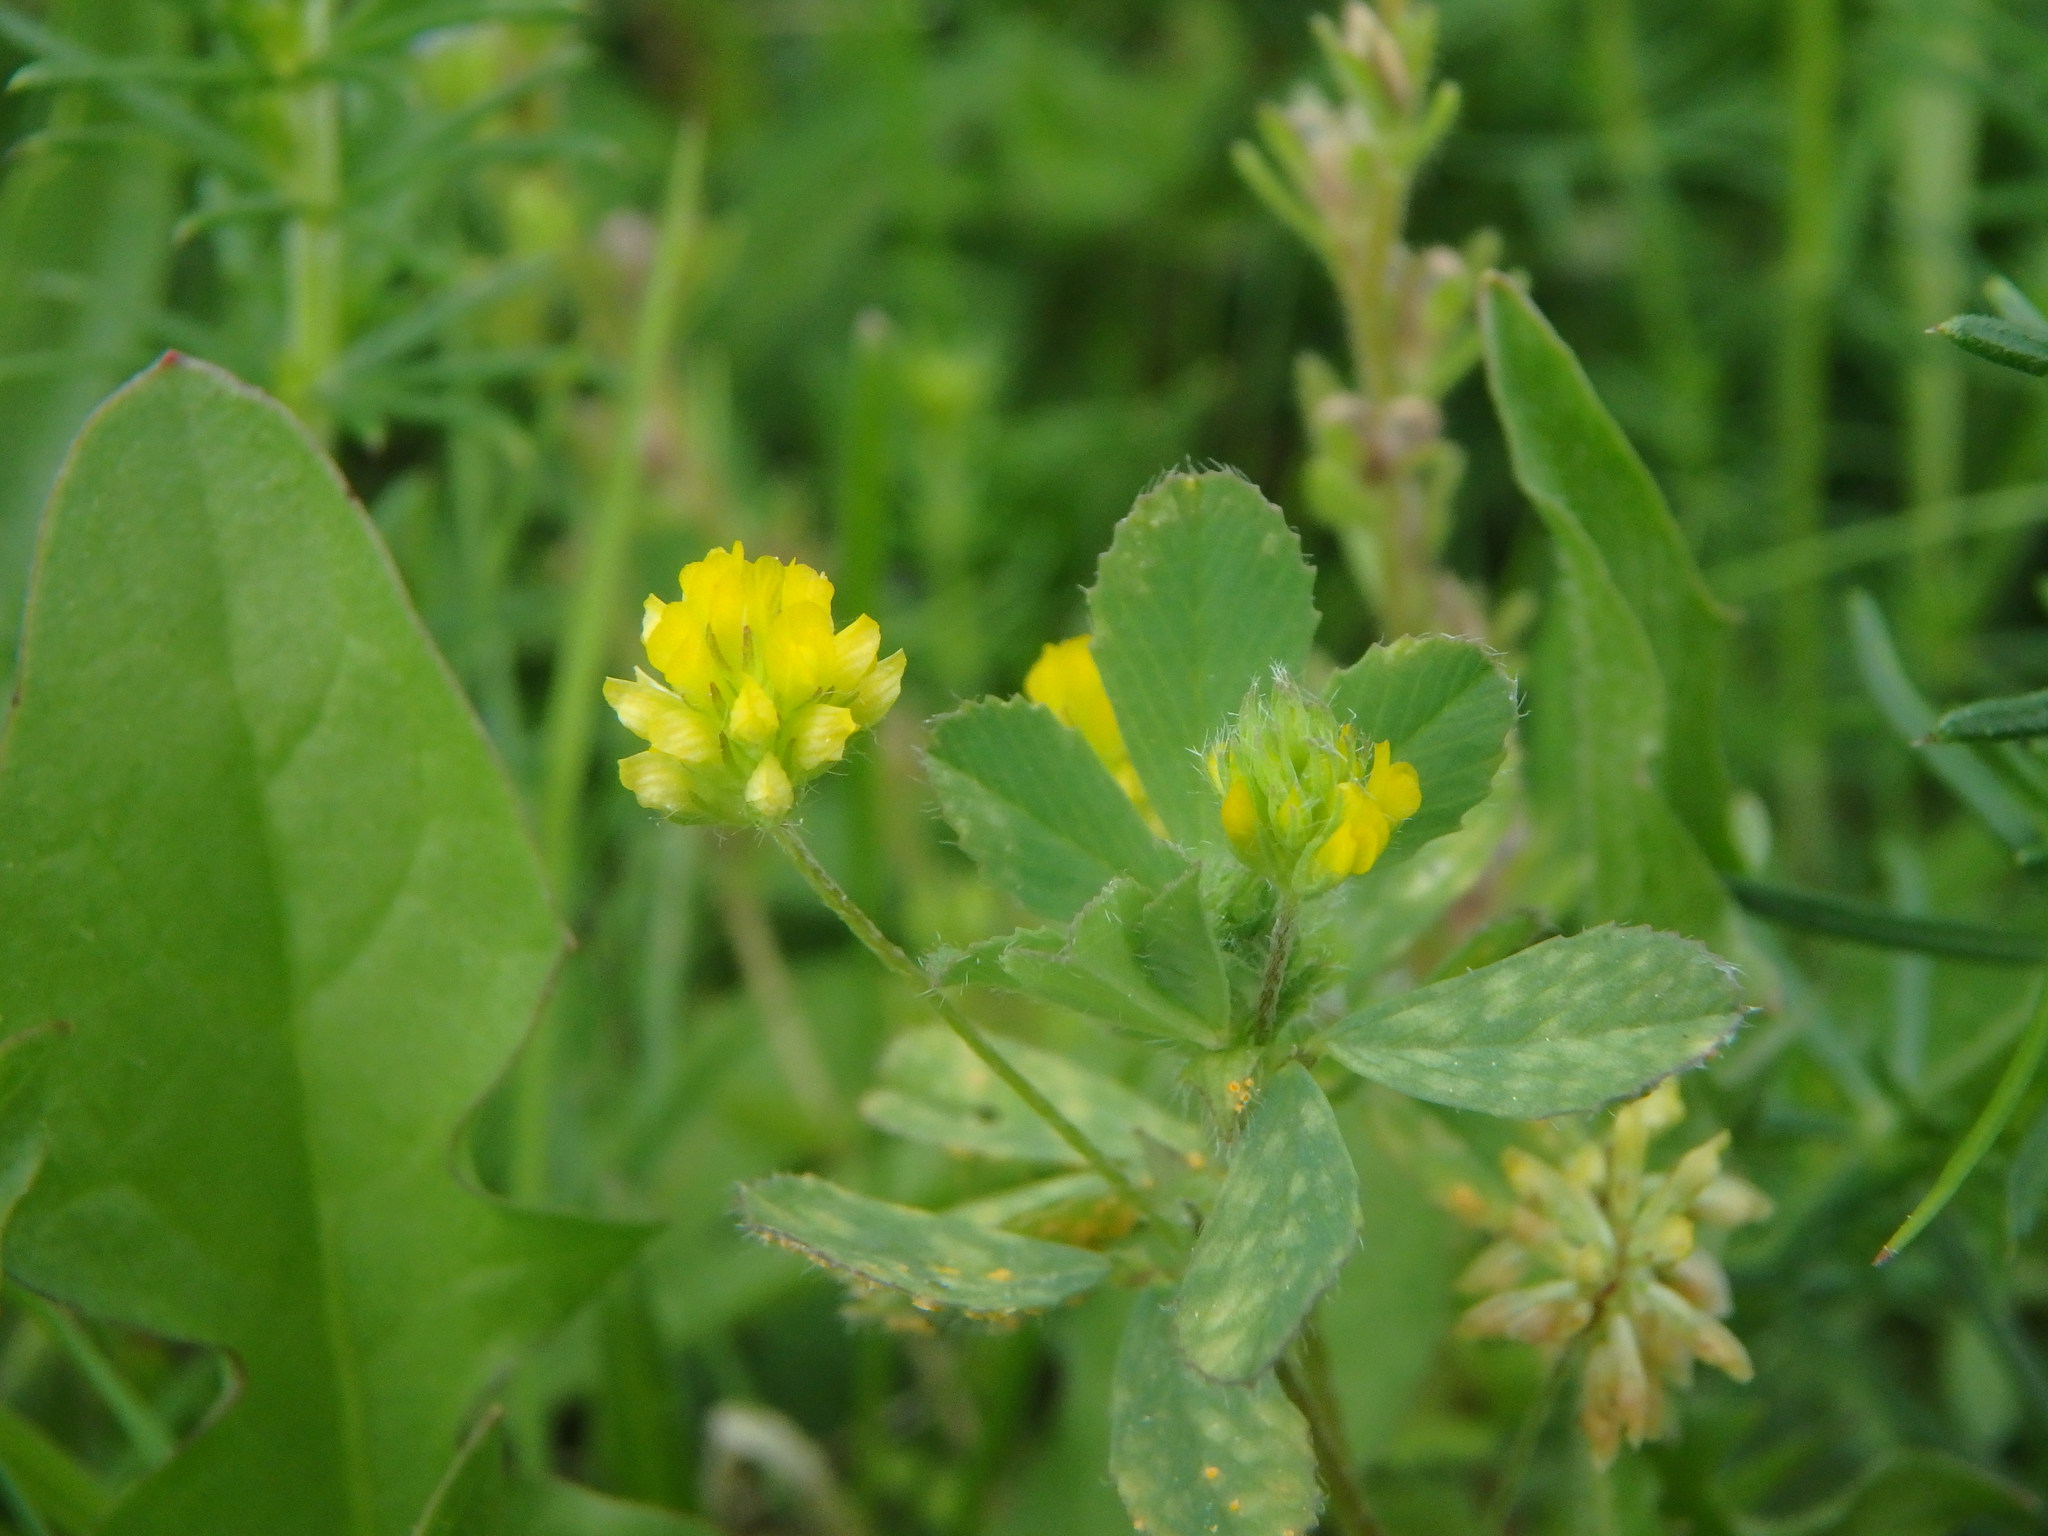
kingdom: Plantae
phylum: Tracheophyta
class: Magnoliopsida
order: Fabales
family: Fabaceae
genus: Trifolium
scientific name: Trifolium dubium
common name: Suckling clover
